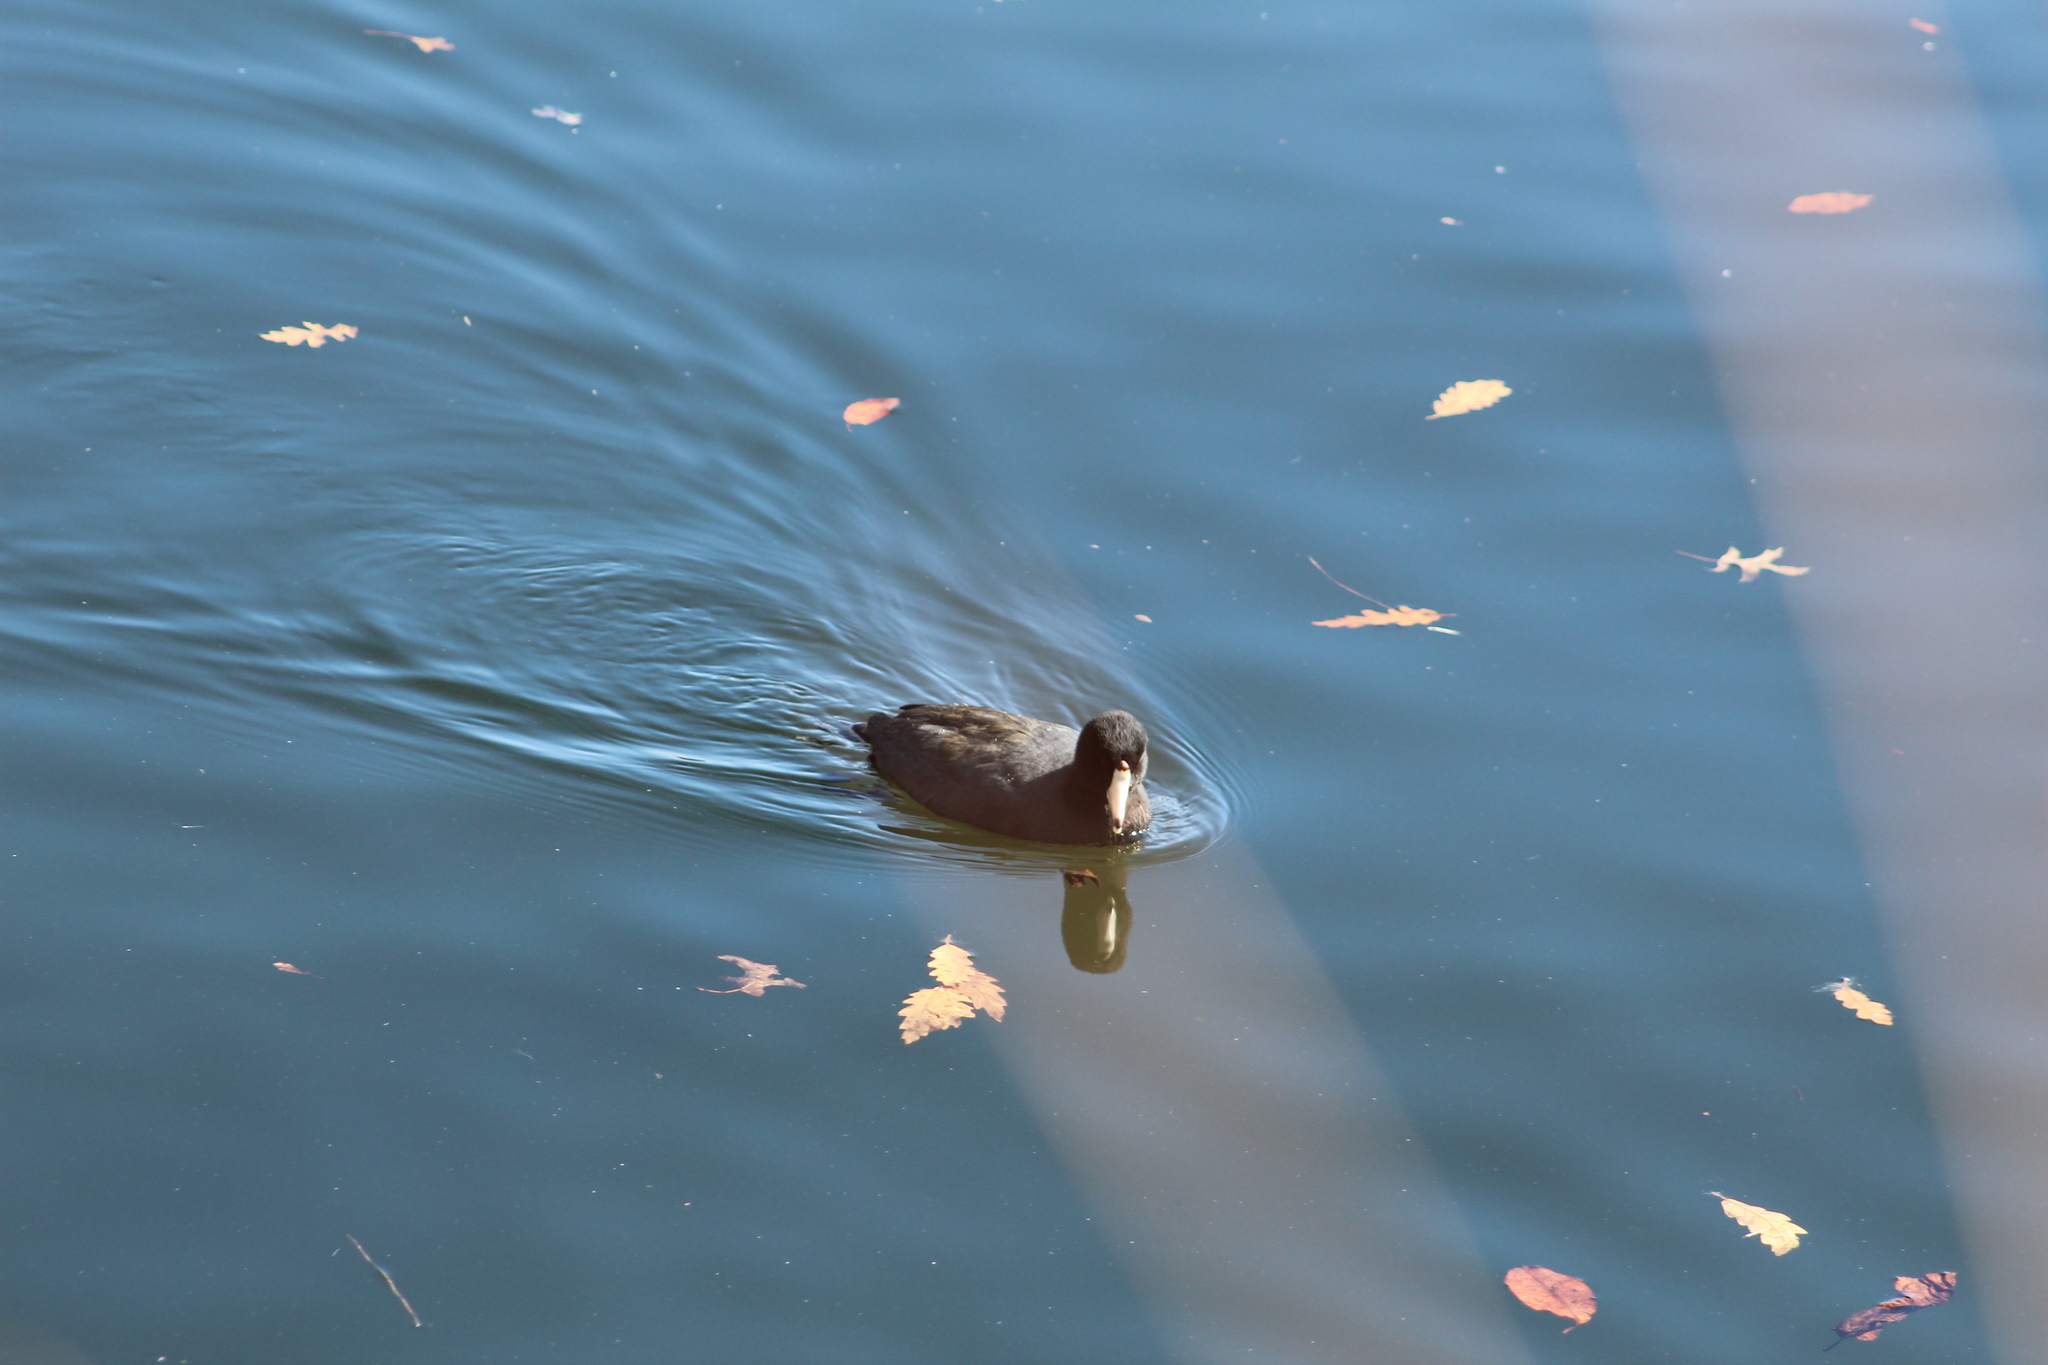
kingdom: Animalia
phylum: Chordata
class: Aves
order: Gruiformes
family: Rallidae
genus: Fulica
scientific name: Fulica americana
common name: American coot
